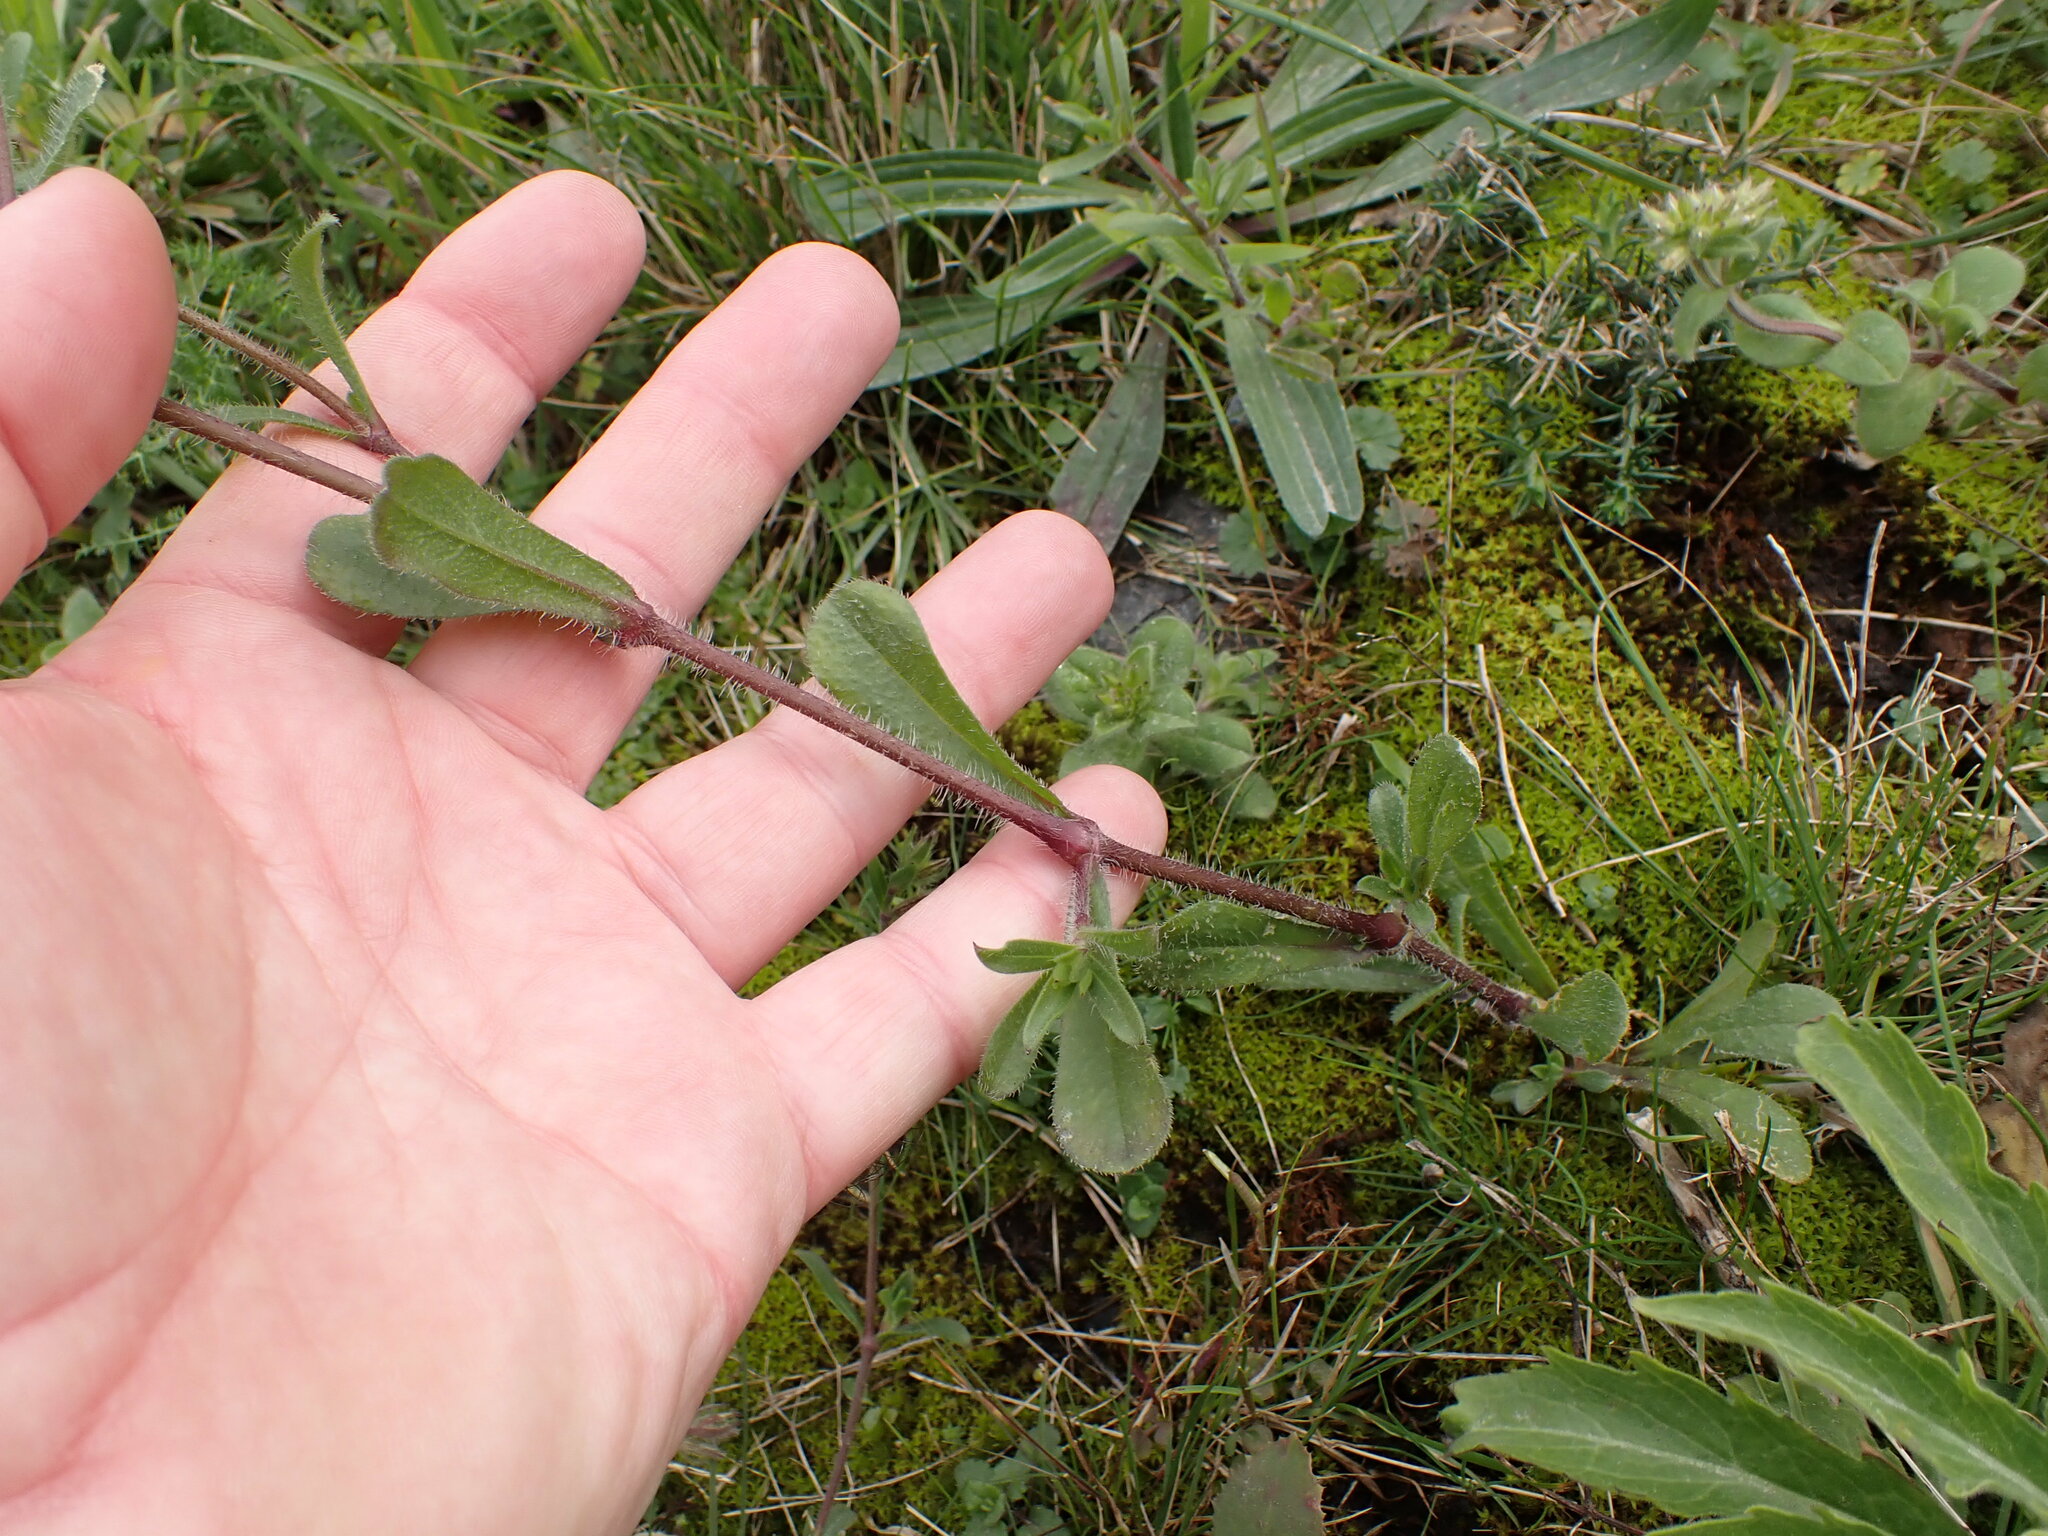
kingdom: Plantae
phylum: Tracheophyta
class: Magnoliopsida
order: Caryophyllales
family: Caryophyllaceae
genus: Silene
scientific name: Silene gallica
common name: Small-flowered catchfly
